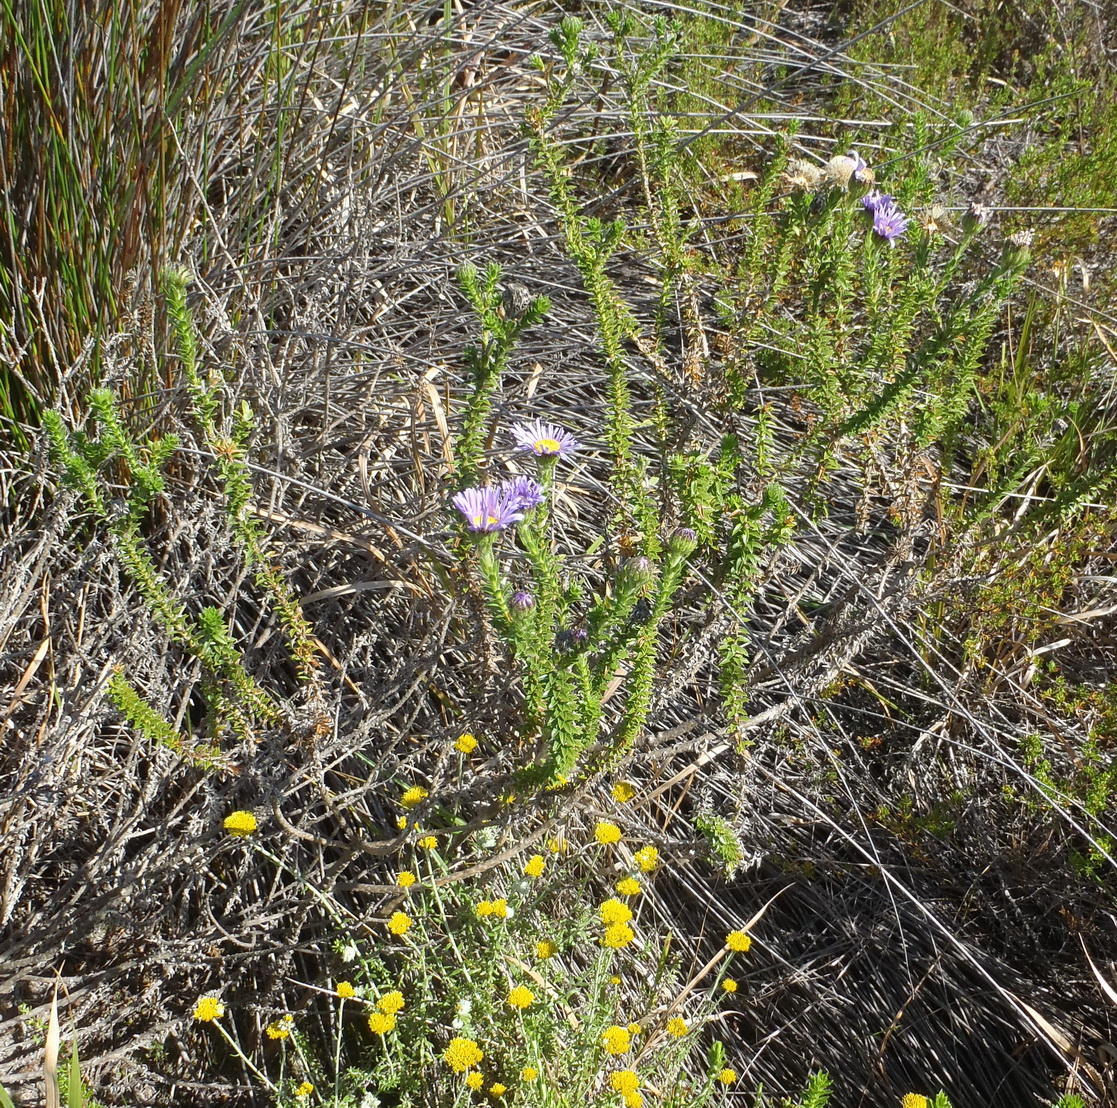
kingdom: Plantae
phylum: Tracheophyta
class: Magnoliopsida
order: Asterales
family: Asteraceae
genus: Felicia
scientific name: Felicia echinata
